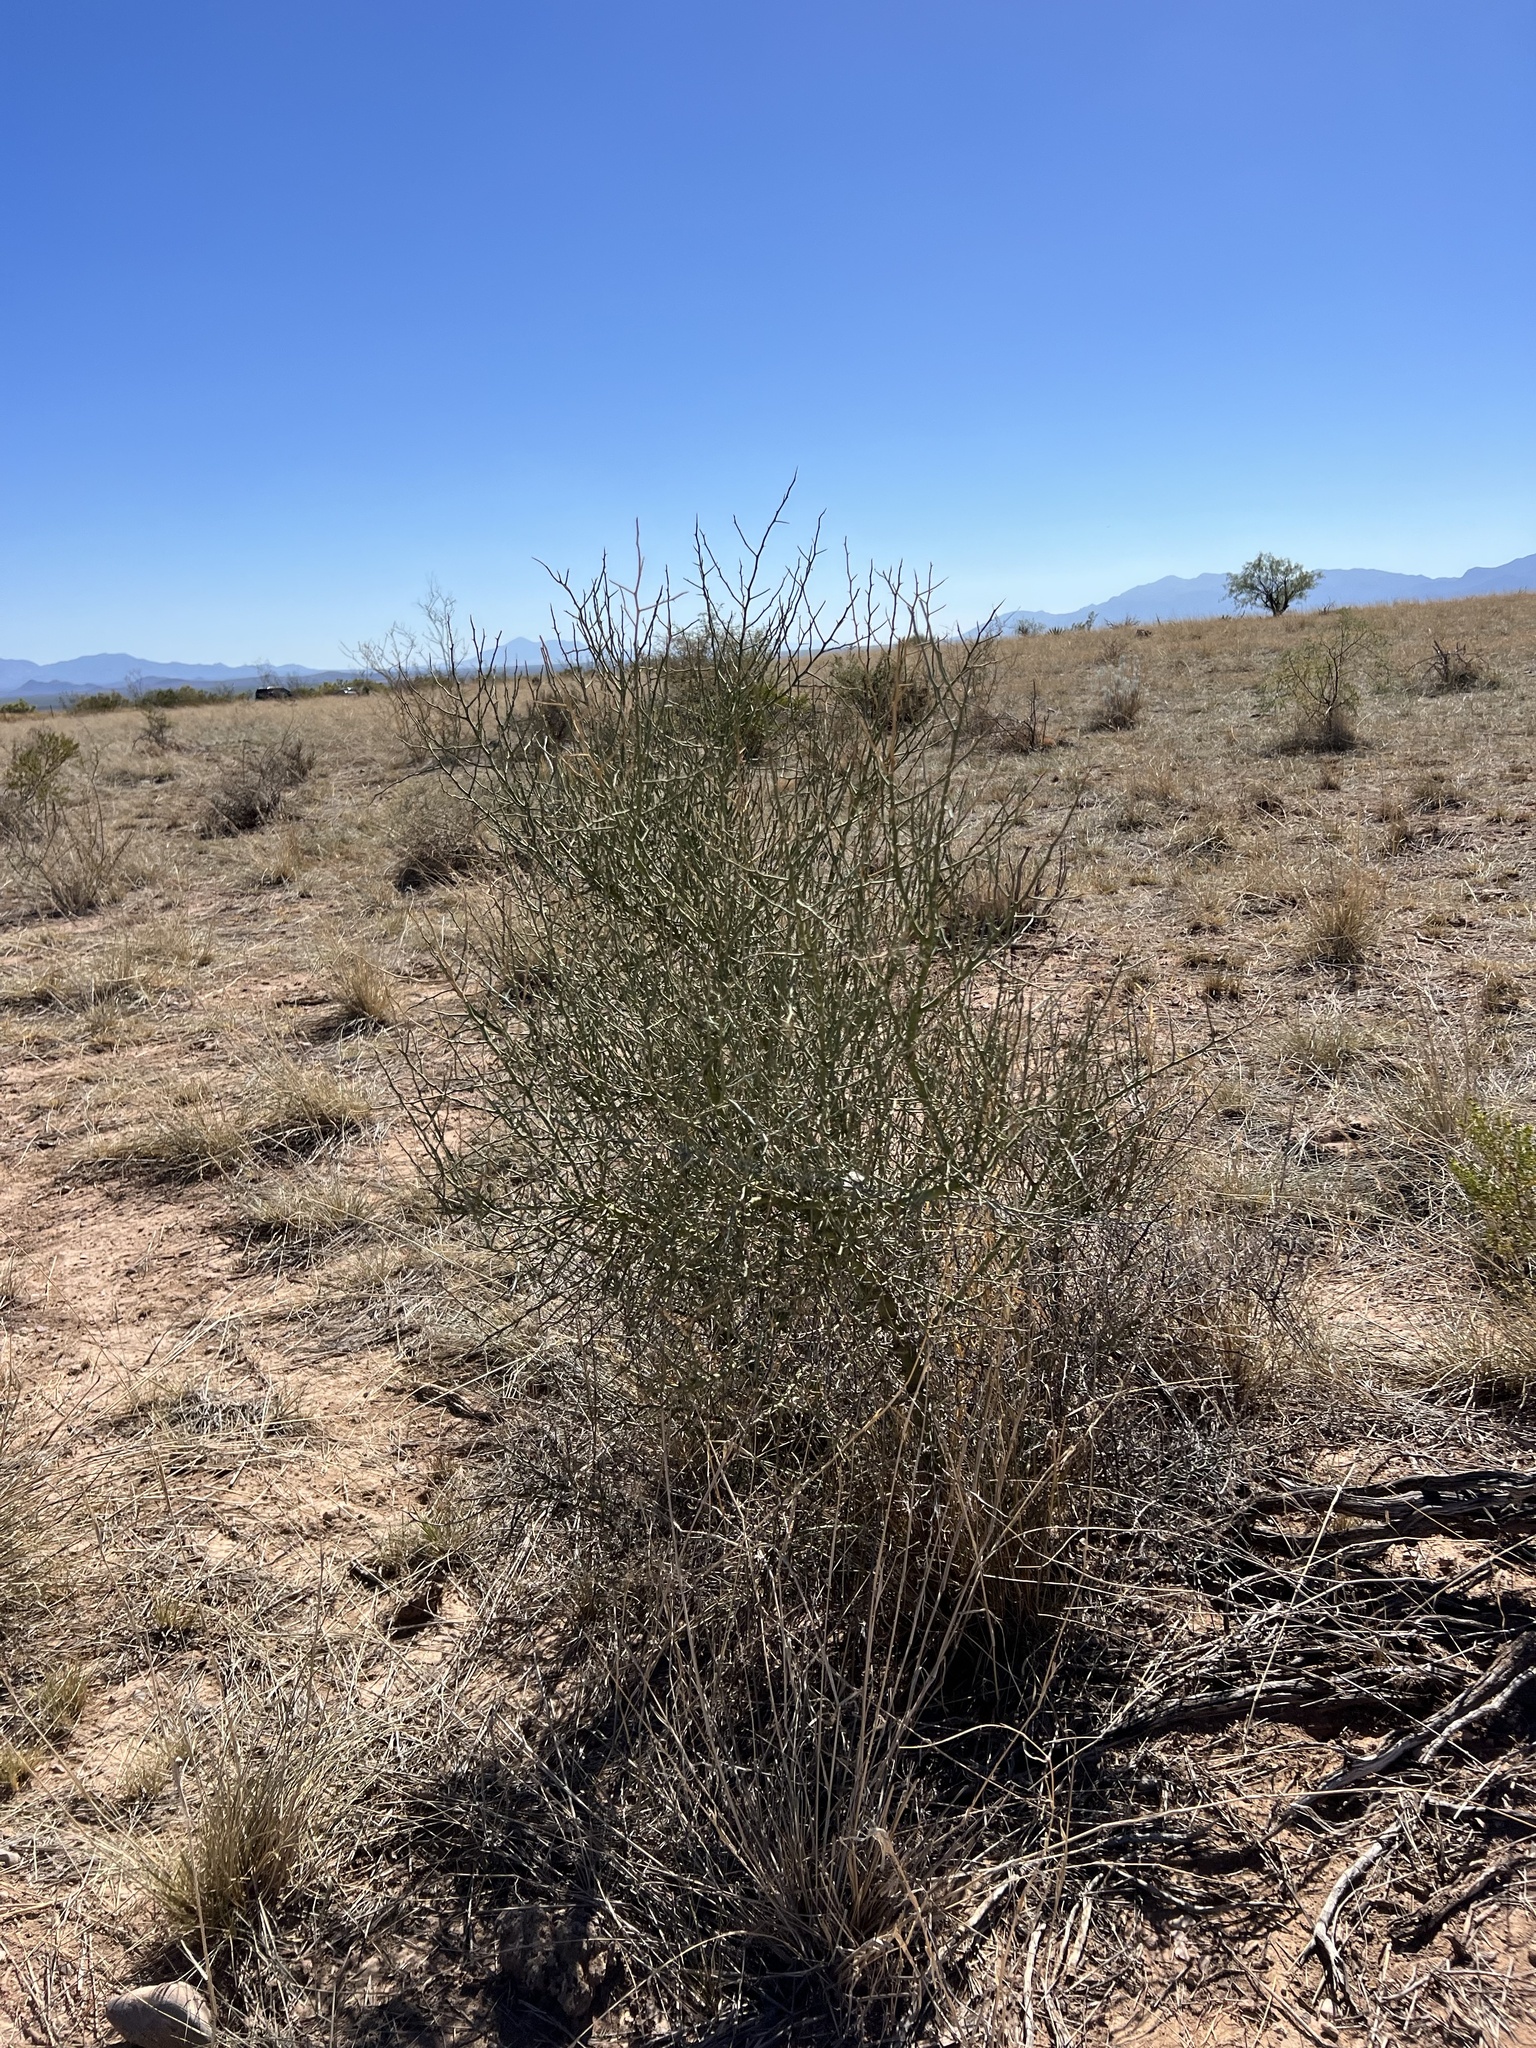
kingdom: Plantae
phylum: Tracheophyta
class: Magnoliopsida
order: Fabales
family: Fabaceae
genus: Parkinsonia
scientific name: Parkinsonia florida
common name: Blue paloverde
